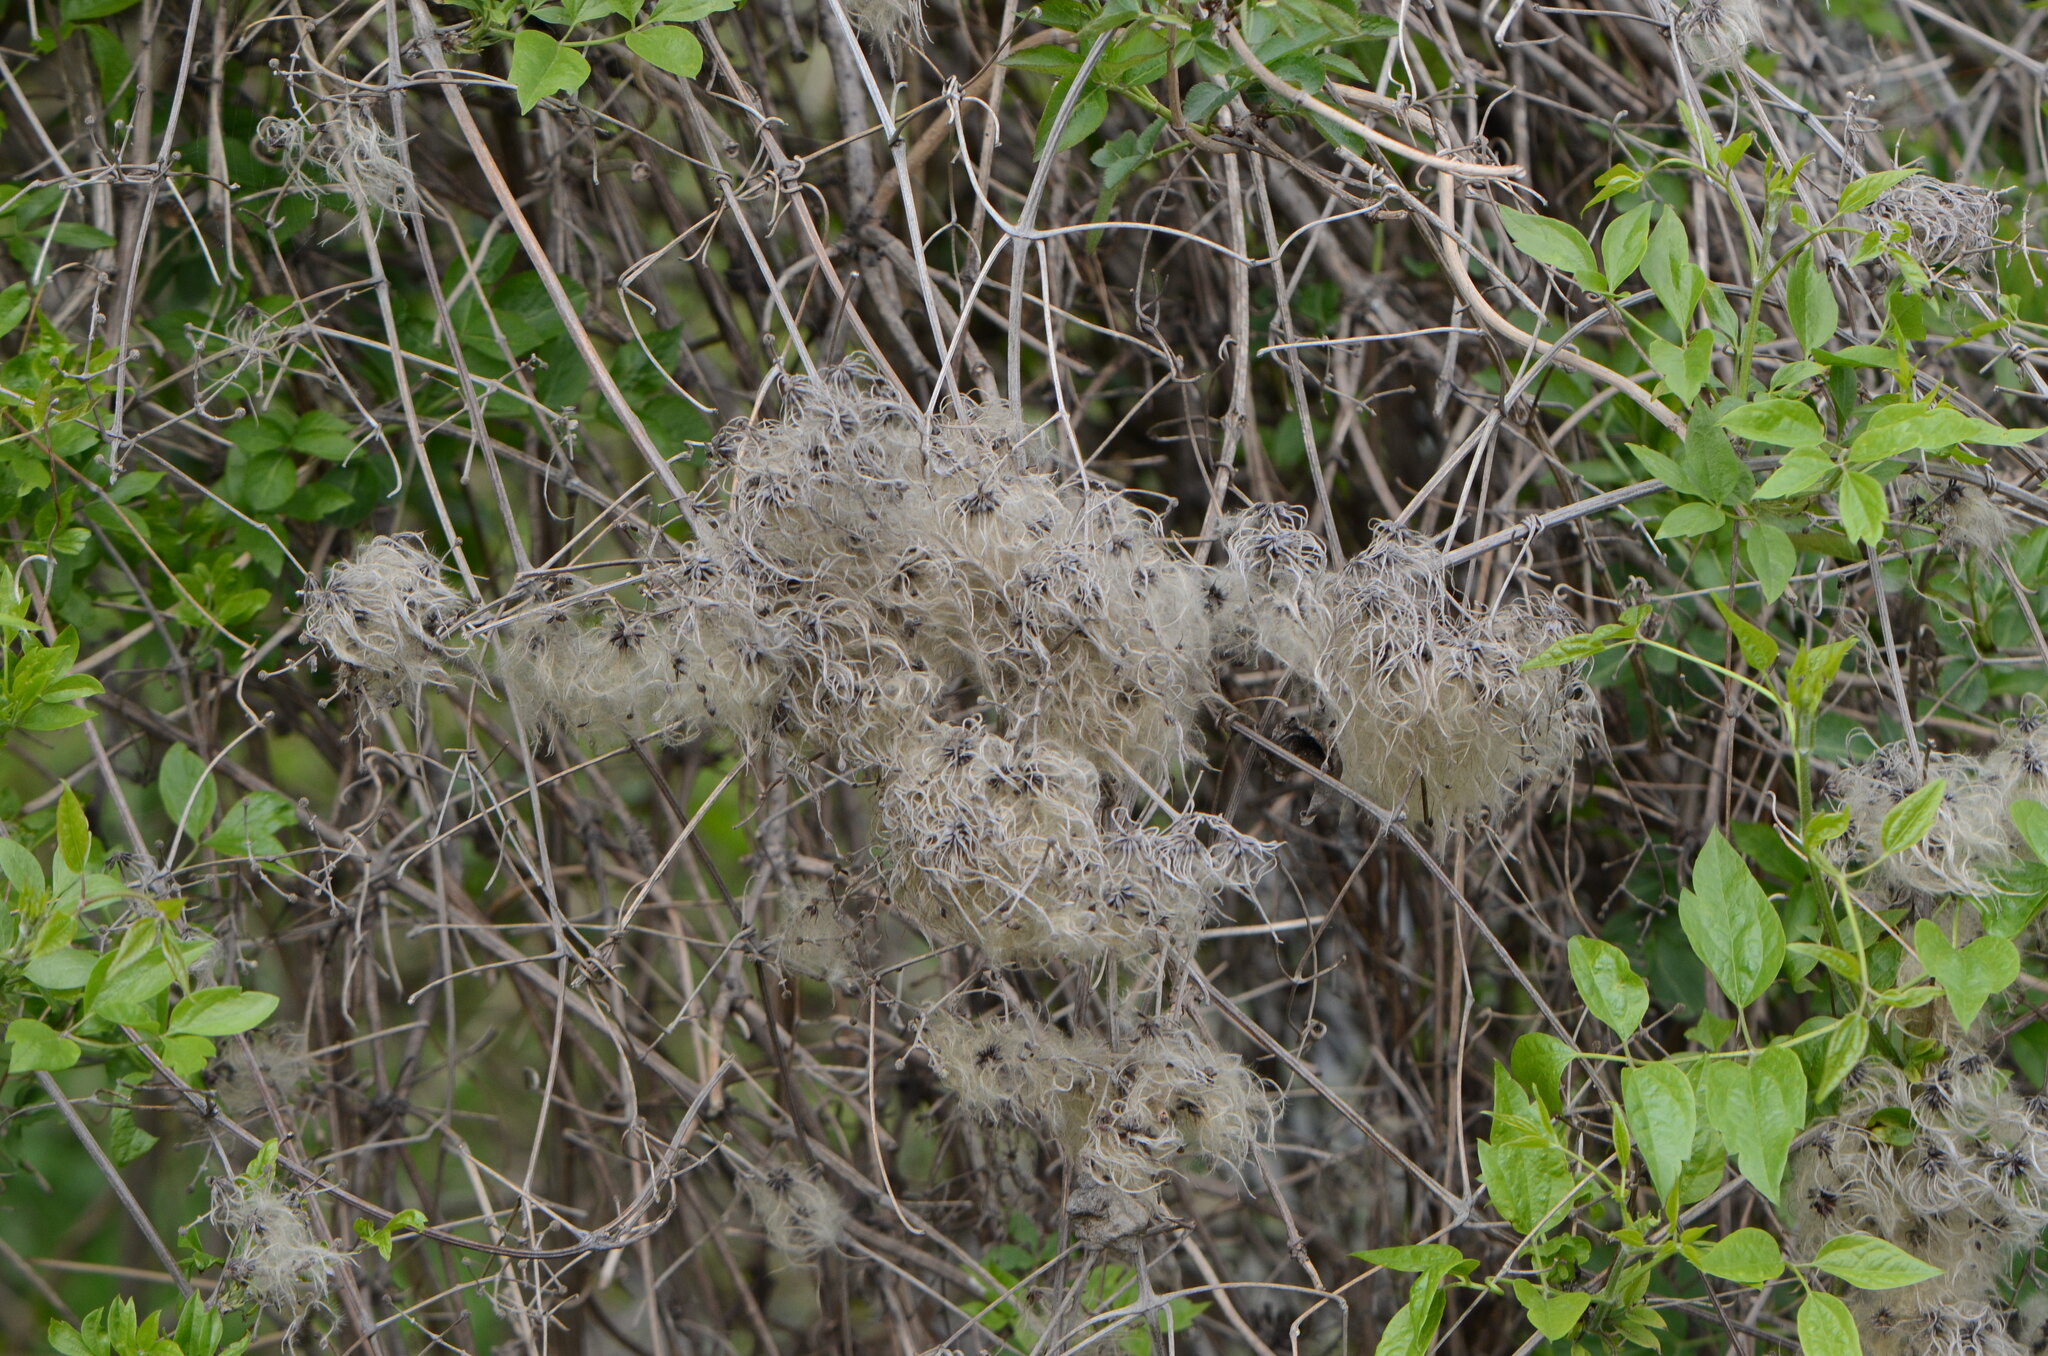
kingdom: Plantae
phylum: Tracheophyta
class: Magnoliopsida
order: Ranunculales
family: Ranunculaceae
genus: Clematis
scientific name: Clematis vitalba
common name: Evergreen clematis
